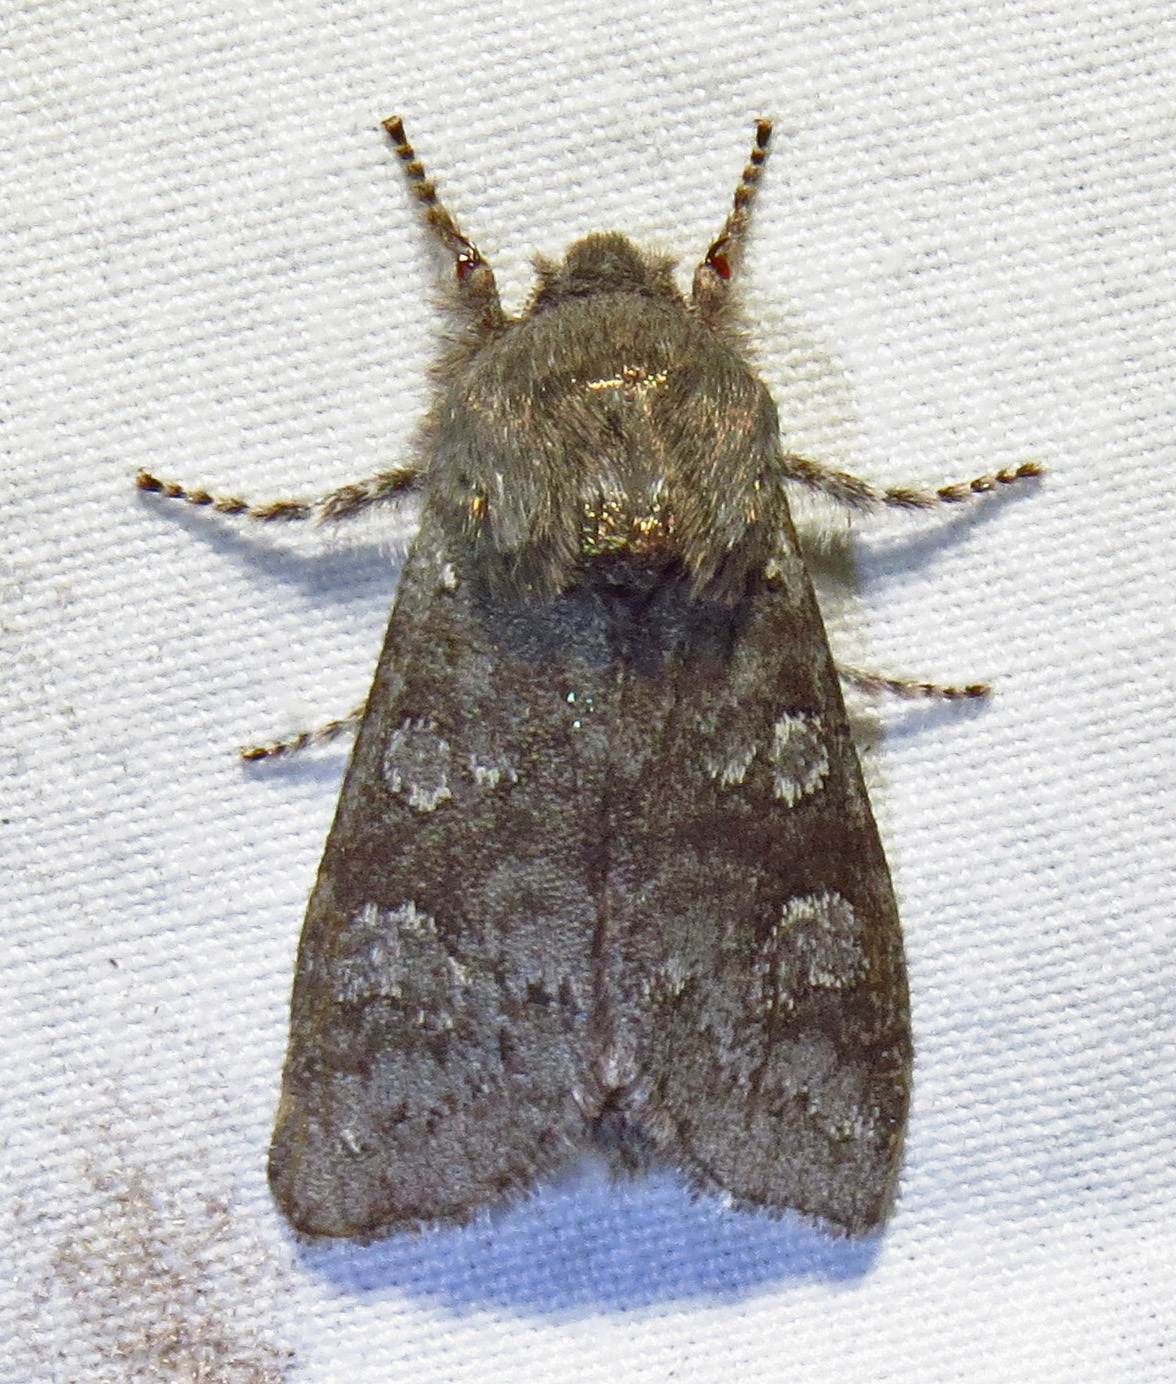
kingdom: Animalia
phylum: Arthropoda
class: Insecta
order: Lepidoptera
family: Noctuidae
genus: Psaphida
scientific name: Psaphida rolandi
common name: Roland's sallow
